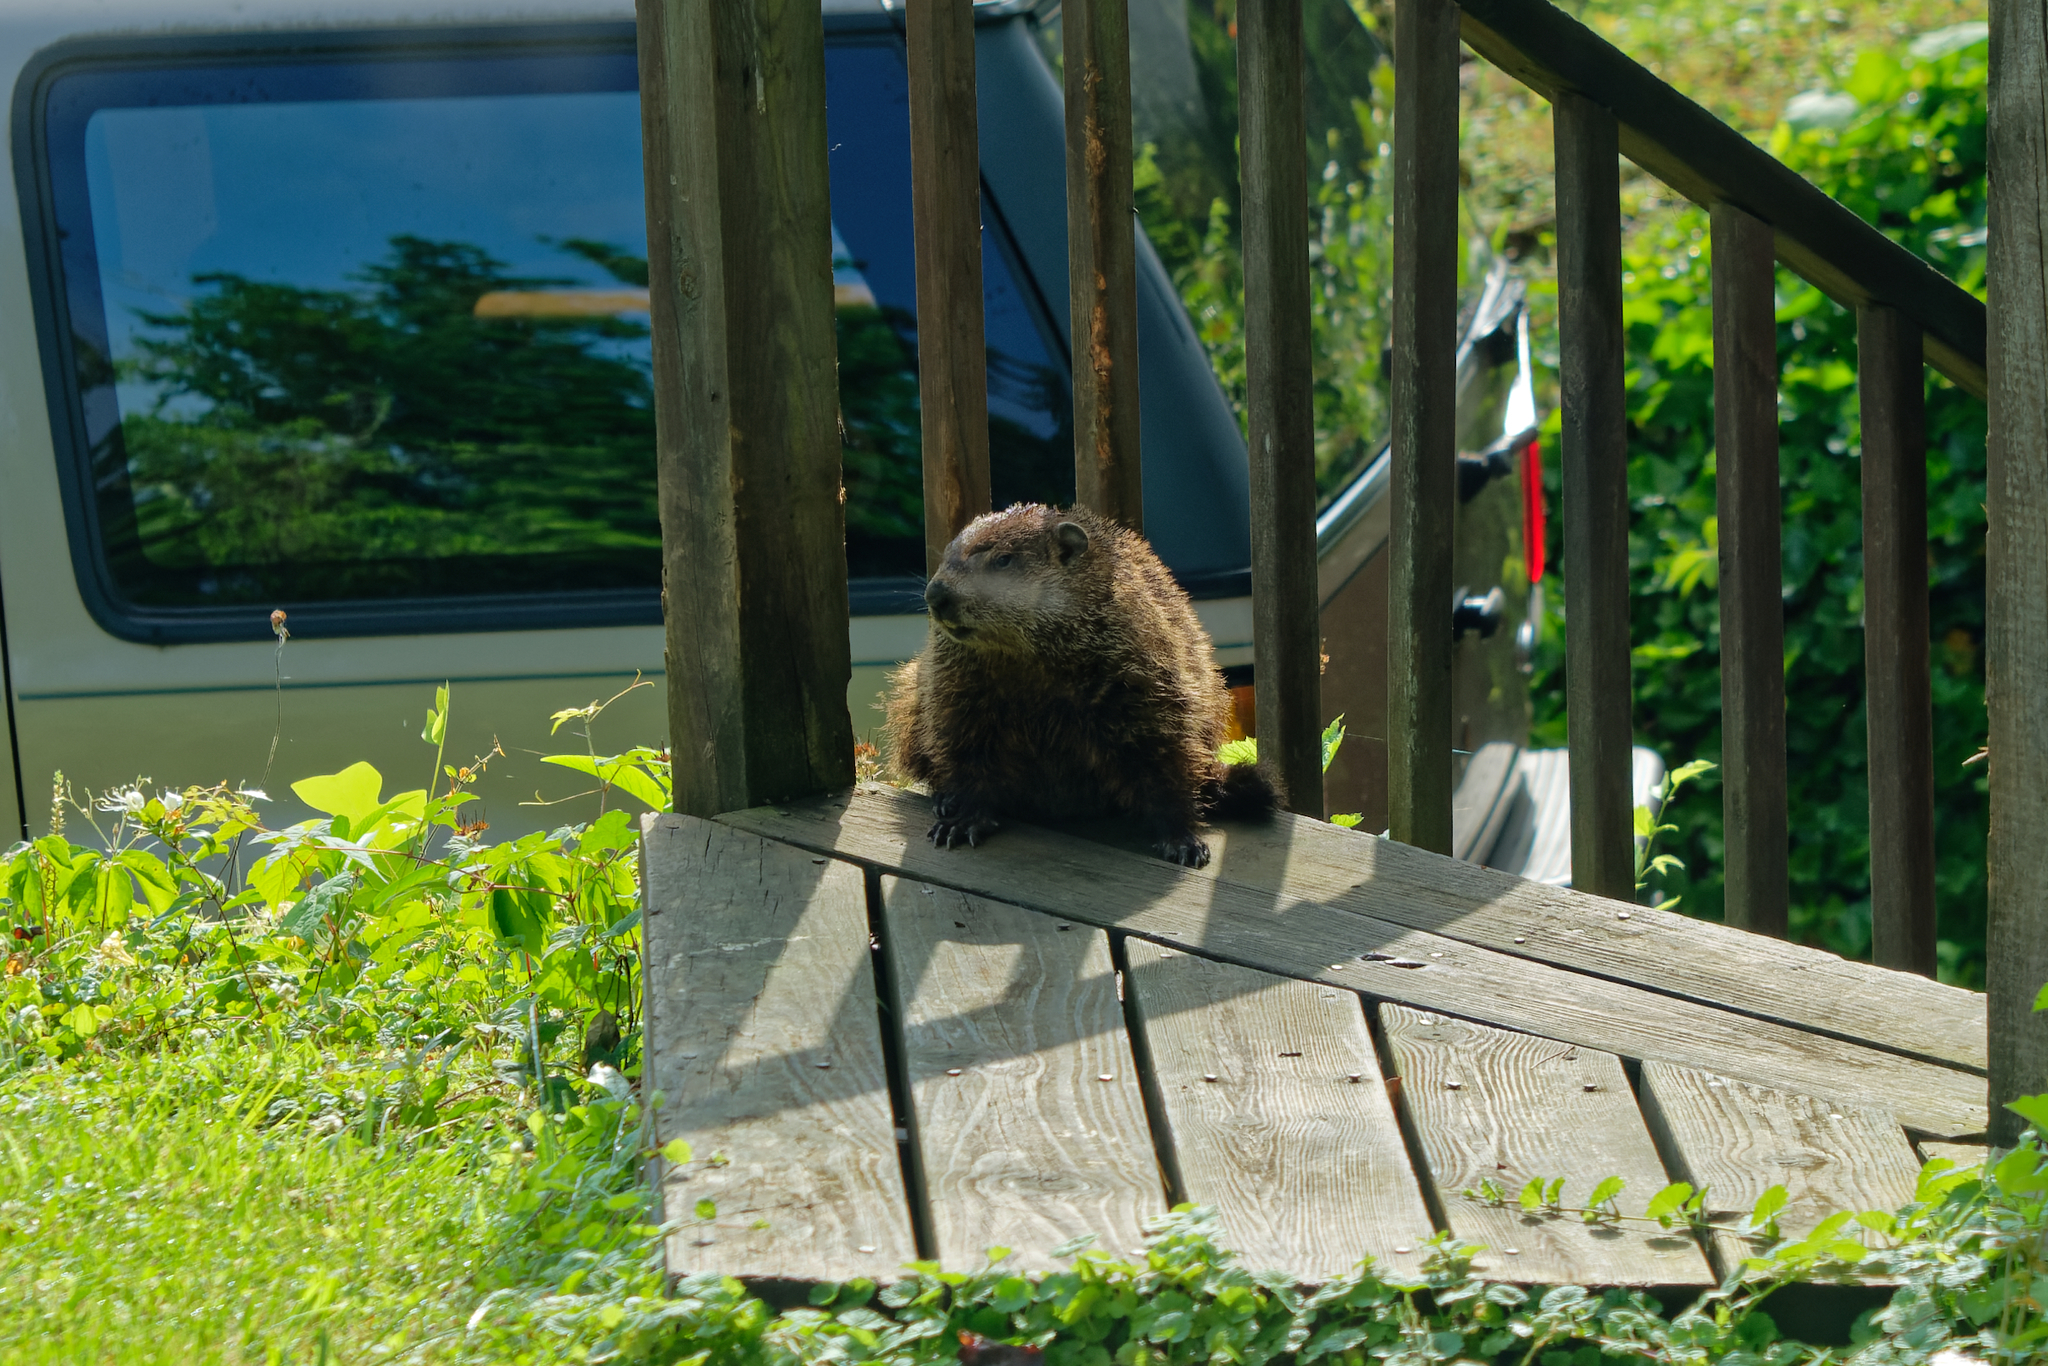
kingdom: Animalia
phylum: Chordata
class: Mammalia
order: Rodentia
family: Sciuridae
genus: Marmota
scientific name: Marmota monax
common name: Groundhog
